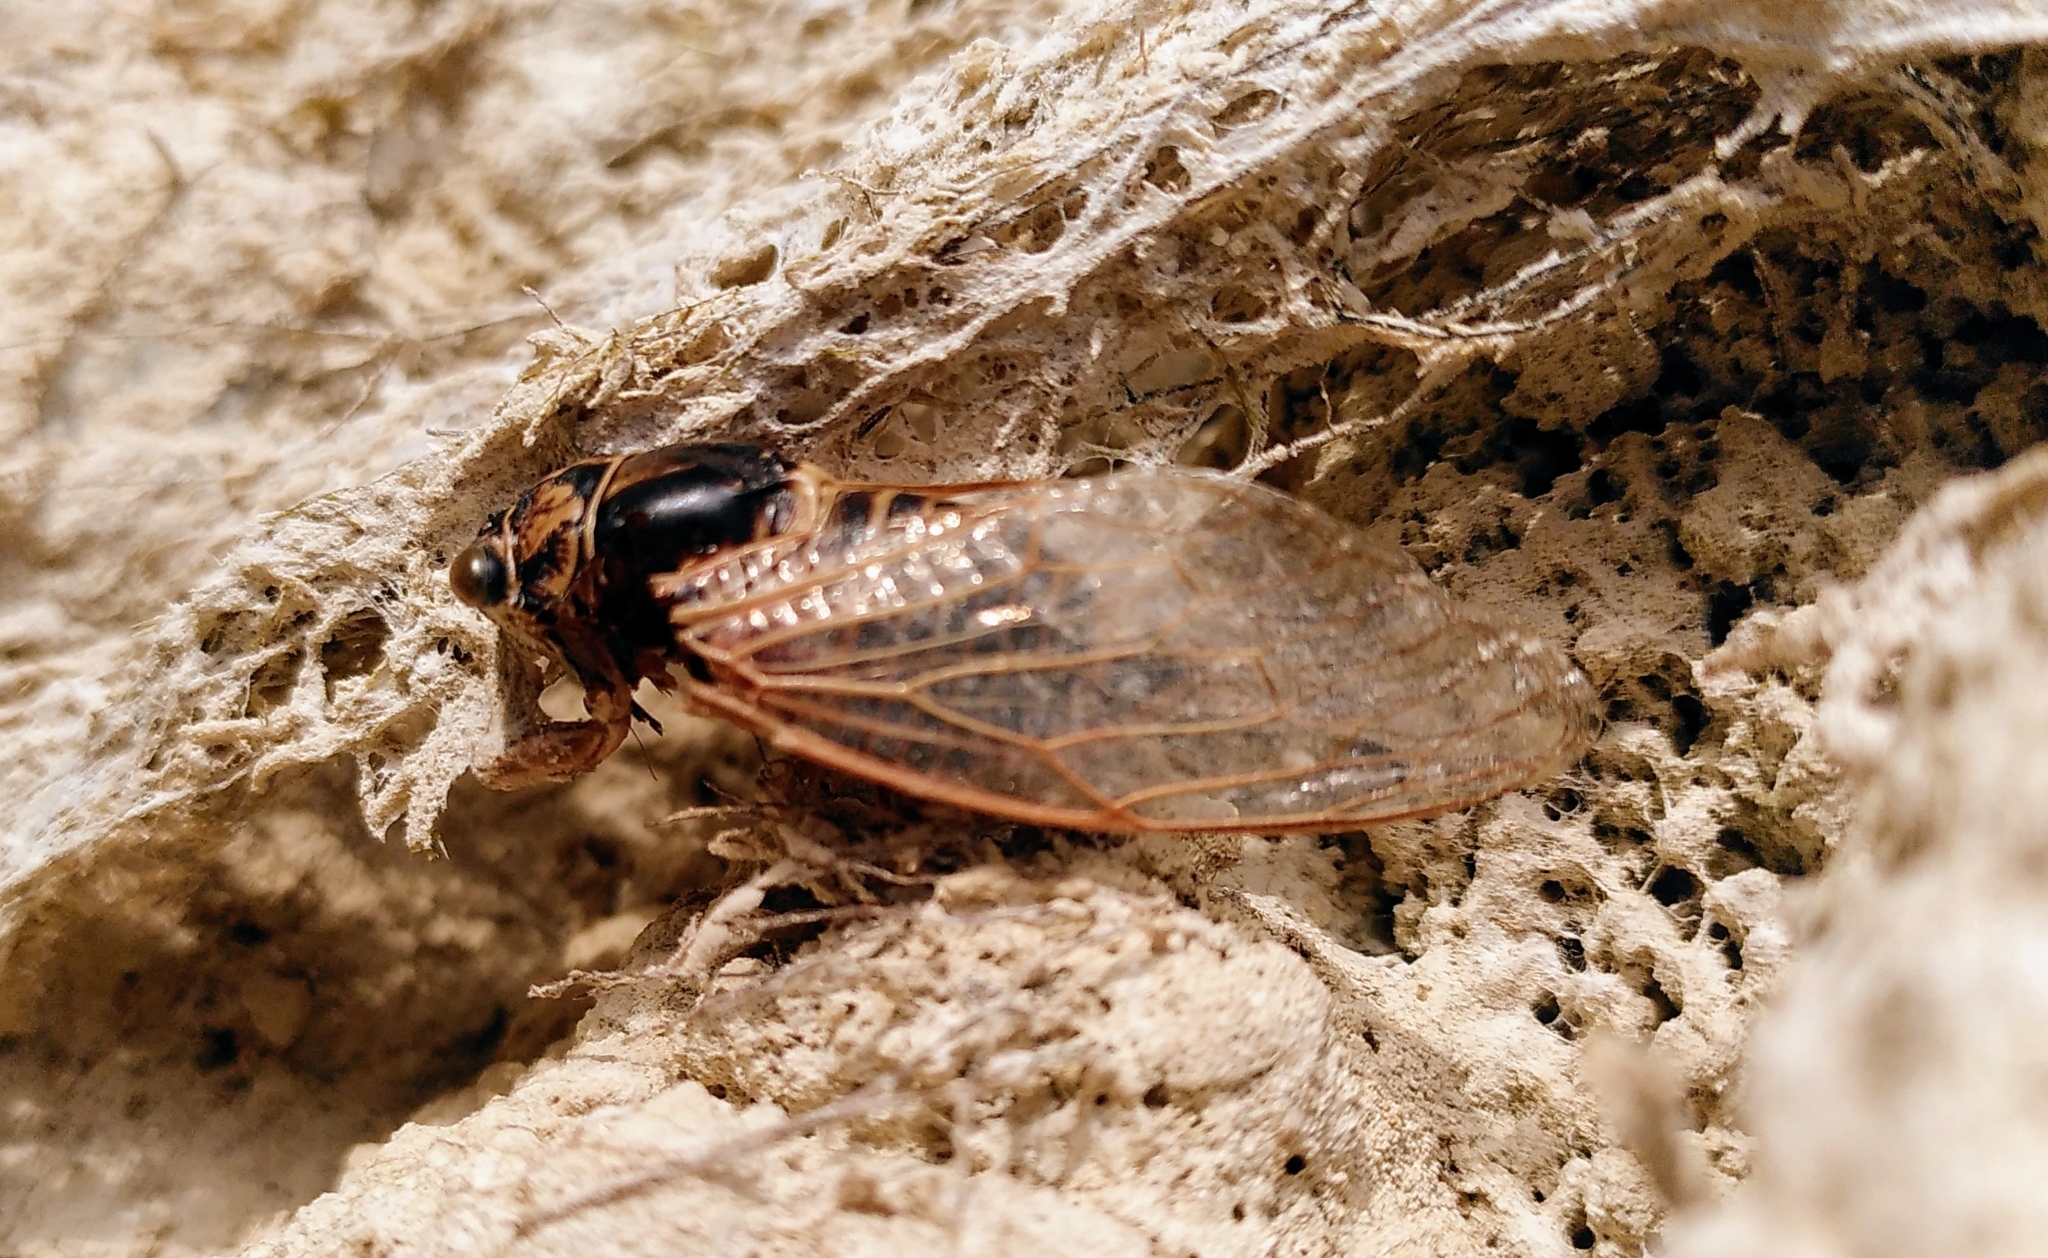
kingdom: Animalia
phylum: Arthropoda
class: Insecta
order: Hemiptera
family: Cicadidae
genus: Tibicina
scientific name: Tibicina haematodes
